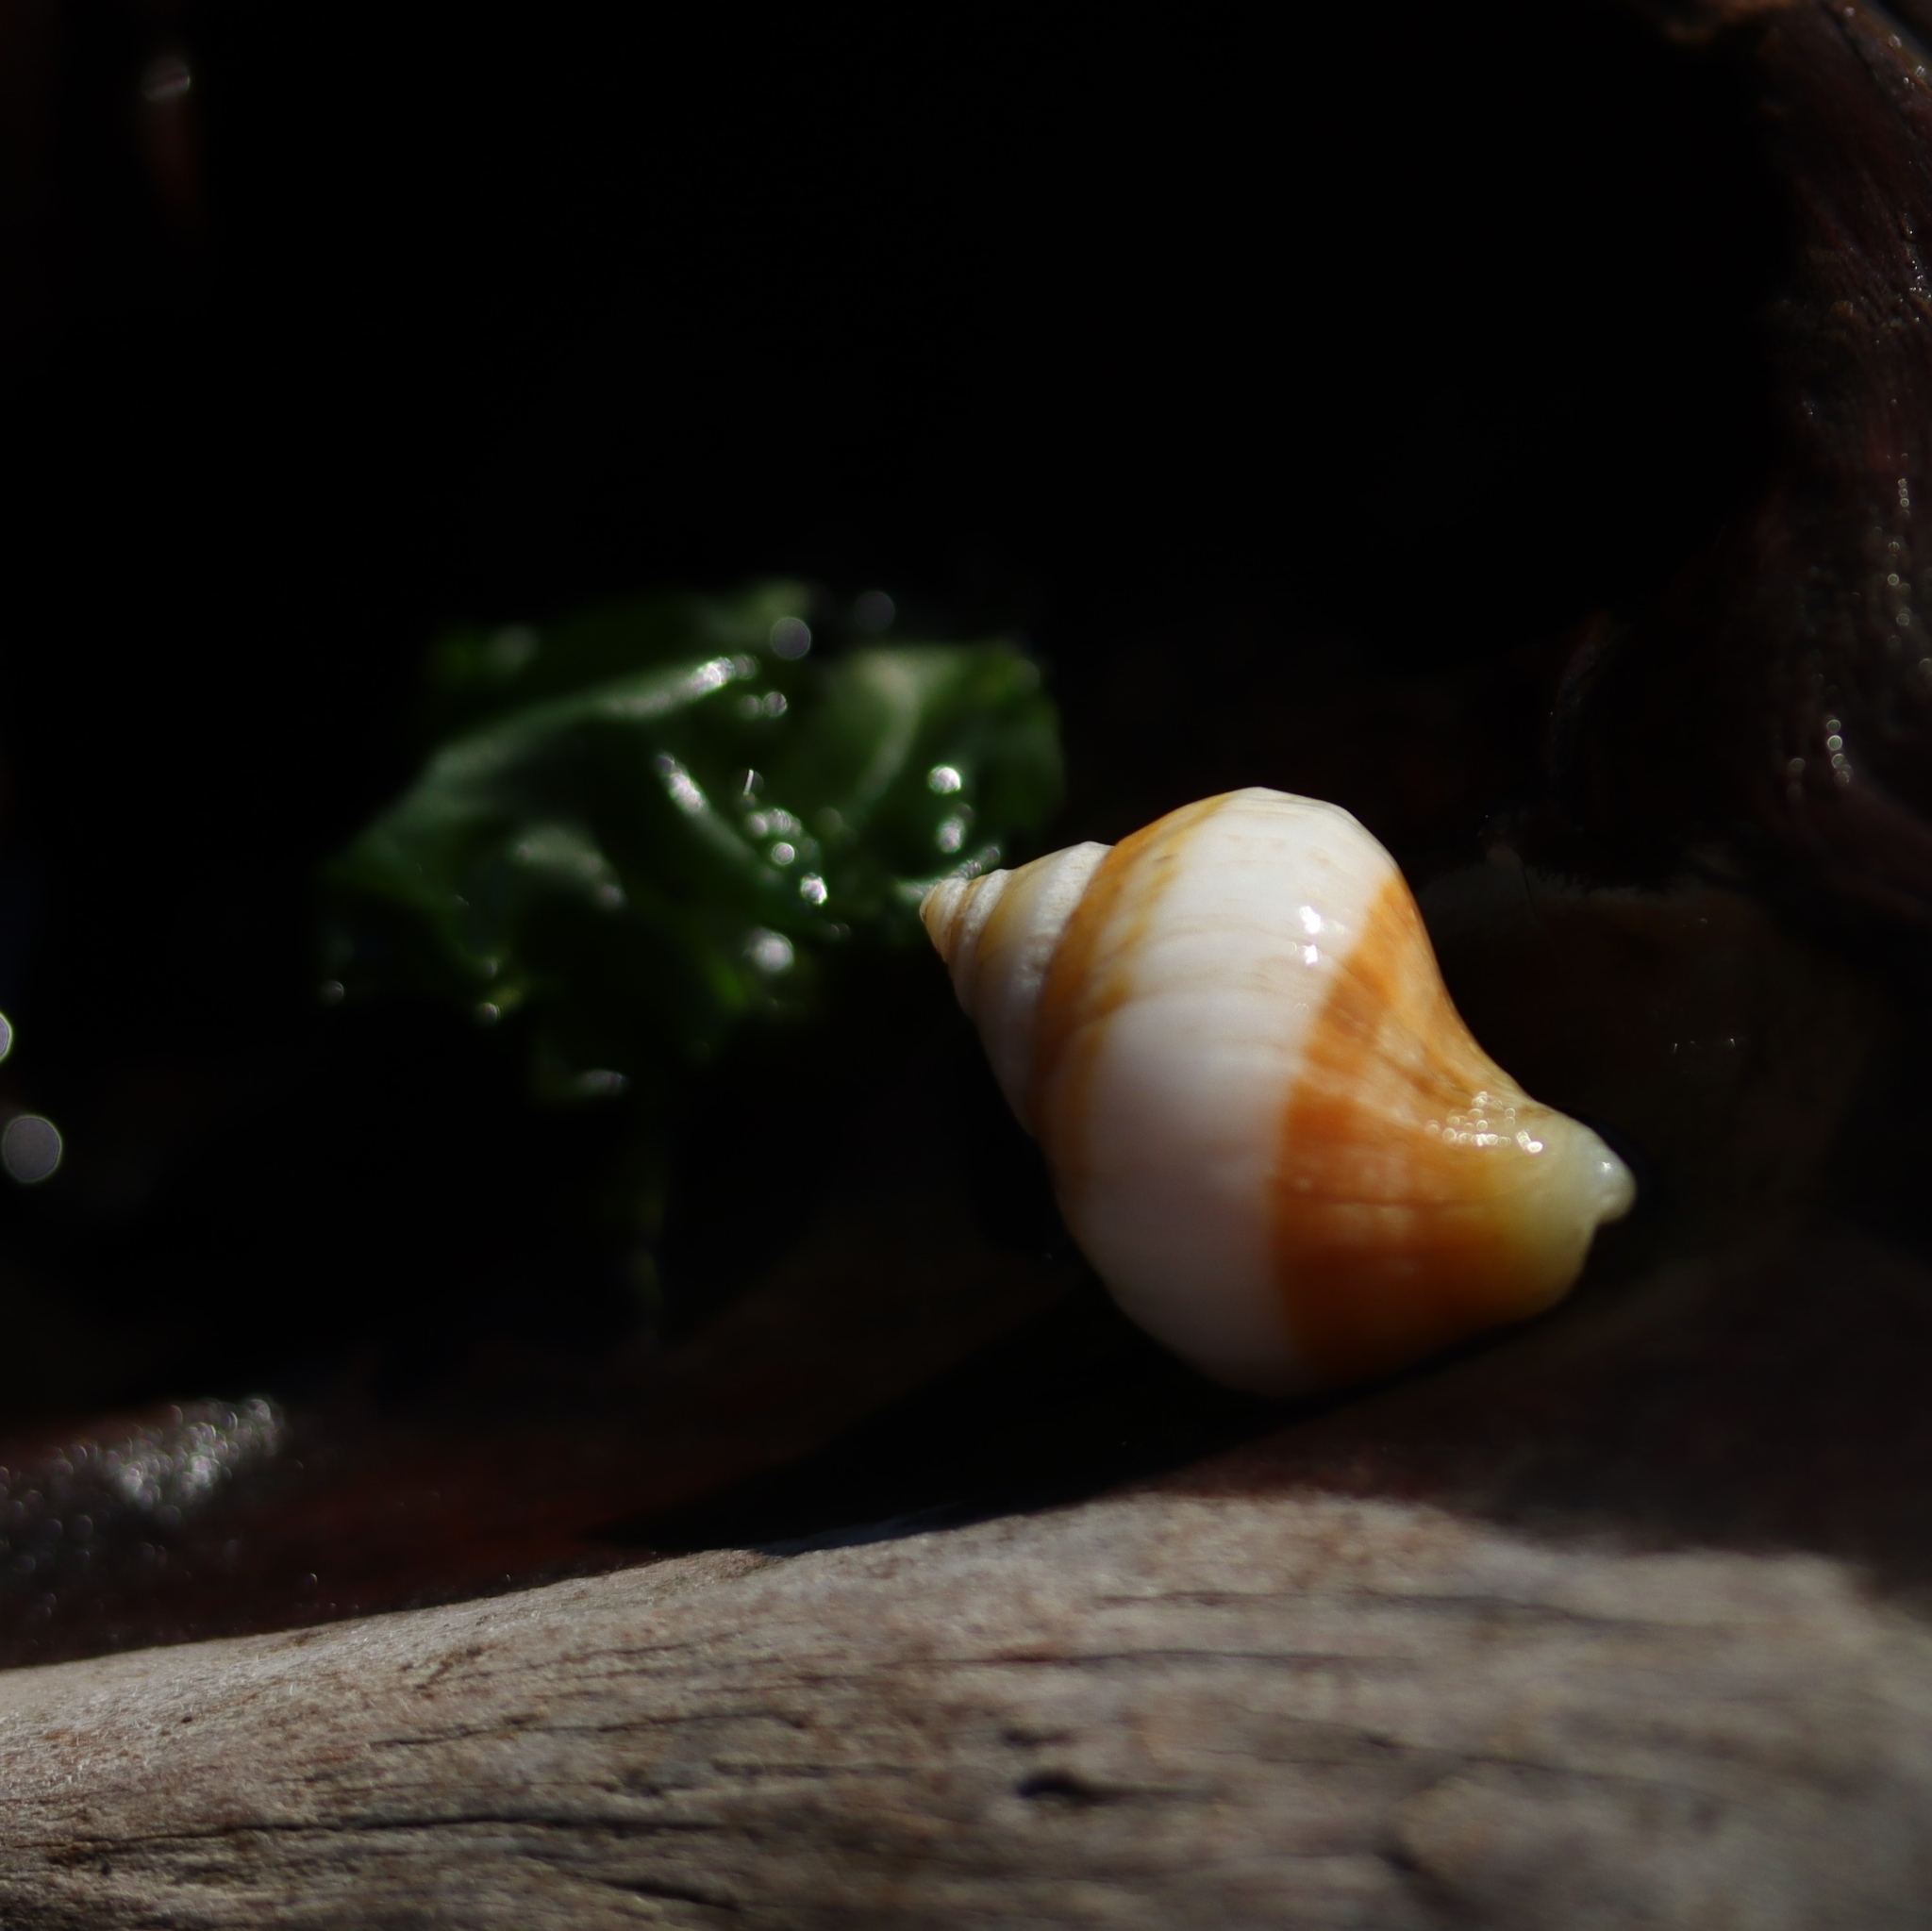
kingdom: Animalia
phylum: Mollusca
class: Gastropoda
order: Neogastropoda
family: Muricidae
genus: Nucella
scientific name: Nucella lamellosa
